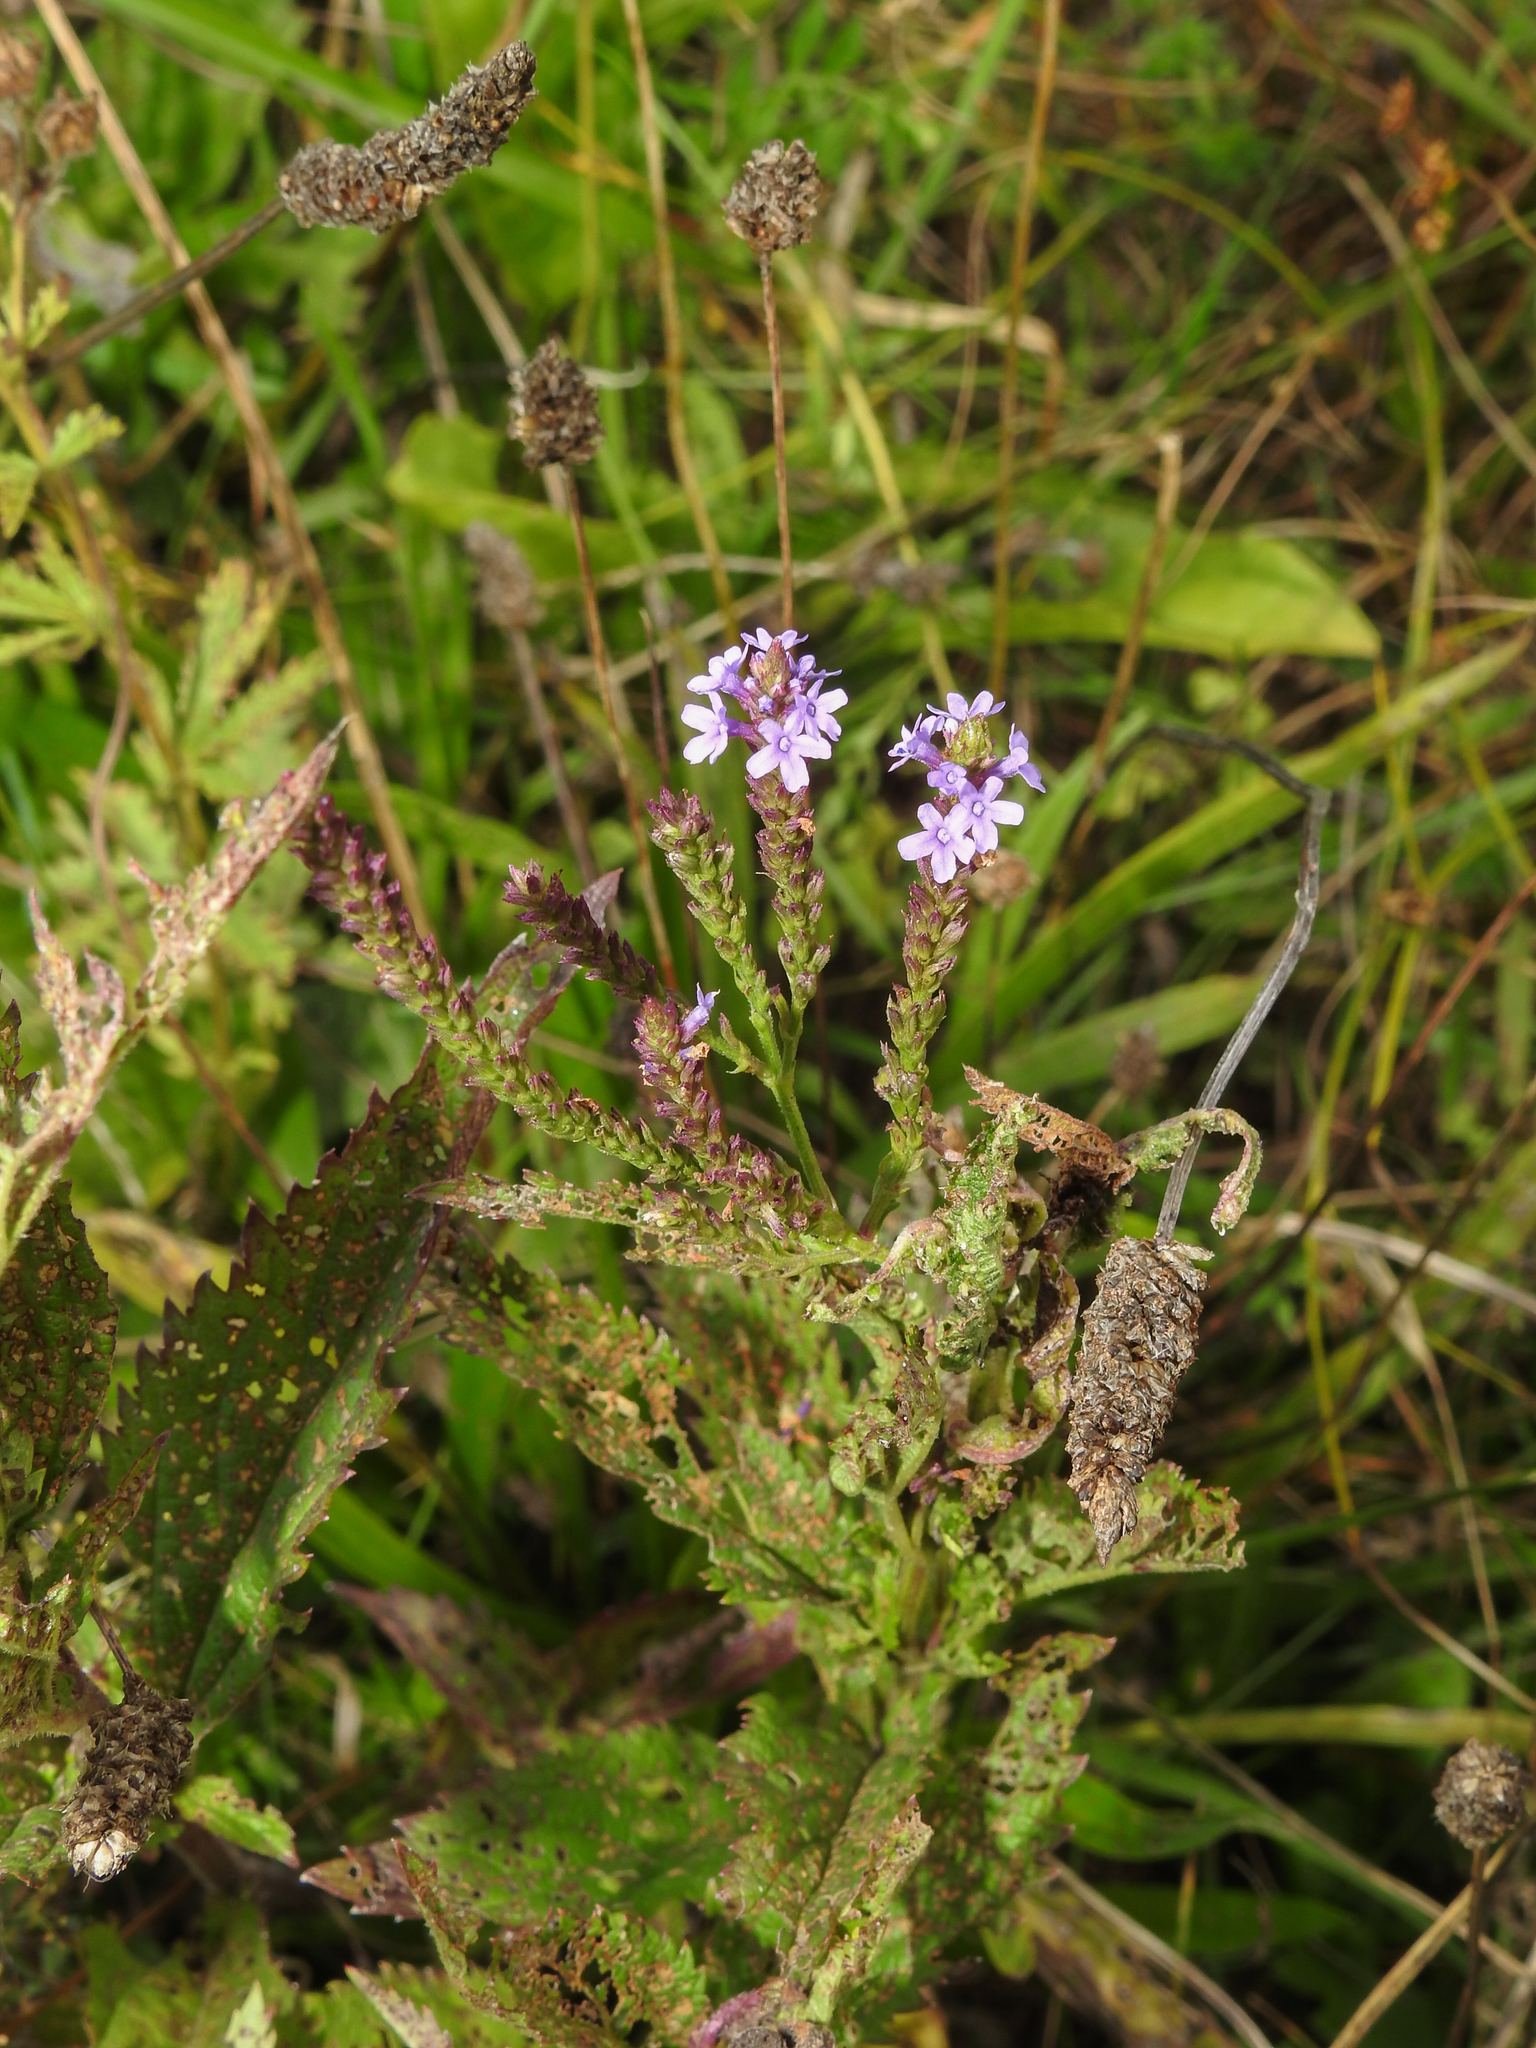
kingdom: Plantae
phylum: Tracheophyta
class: Magnoliopsida
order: Lamiales
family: Verbenaceae
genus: Verbena
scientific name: Verbena hastata
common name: American blue vervain
